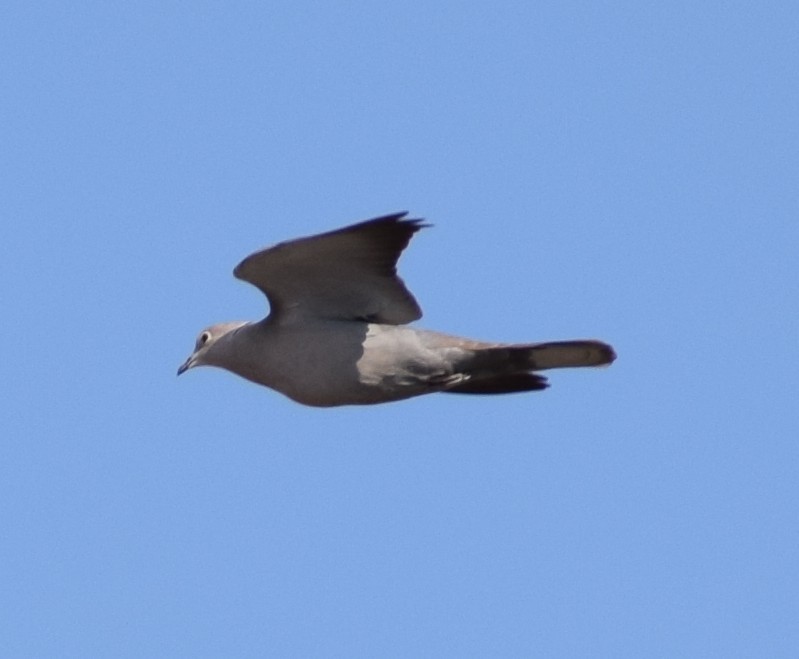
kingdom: Animalia
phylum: Chordata
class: Aves
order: Columbiformes
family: Columbidae
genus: Streptopelia
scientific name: Streptopelia decaocto
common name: Eurasian collared dove
